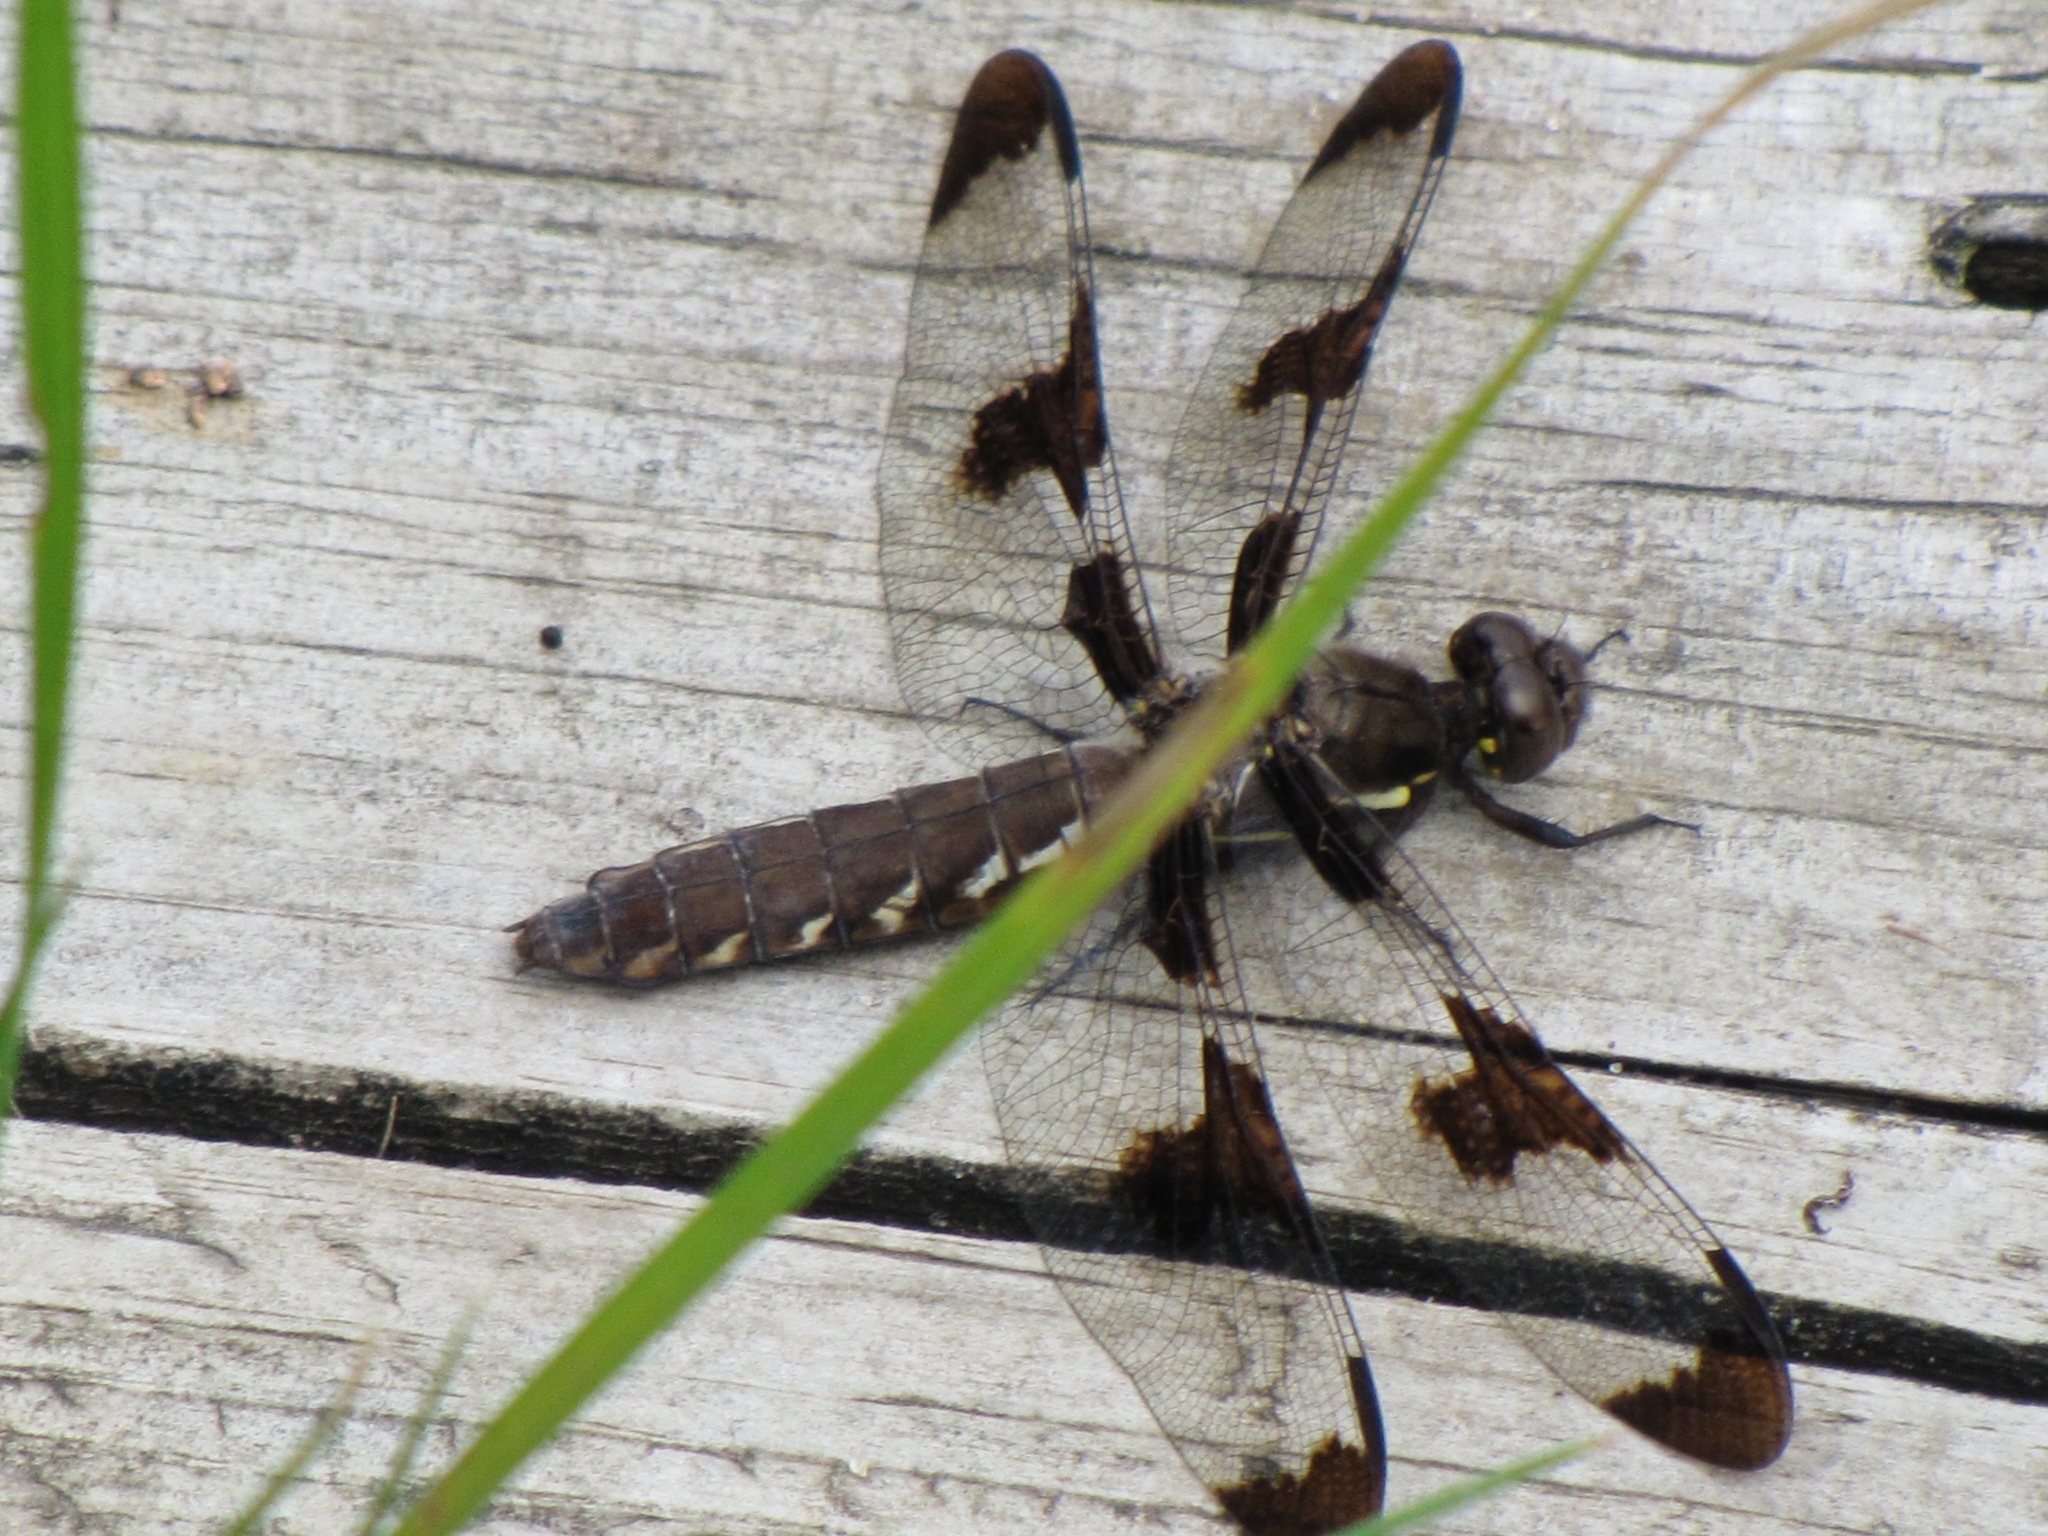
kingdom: Animalia
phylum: Arthropoda
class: Insecta
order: Odonata
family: Libellulidae
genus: Plathemis
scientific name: Plathemis lydia
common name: Common whitetail
